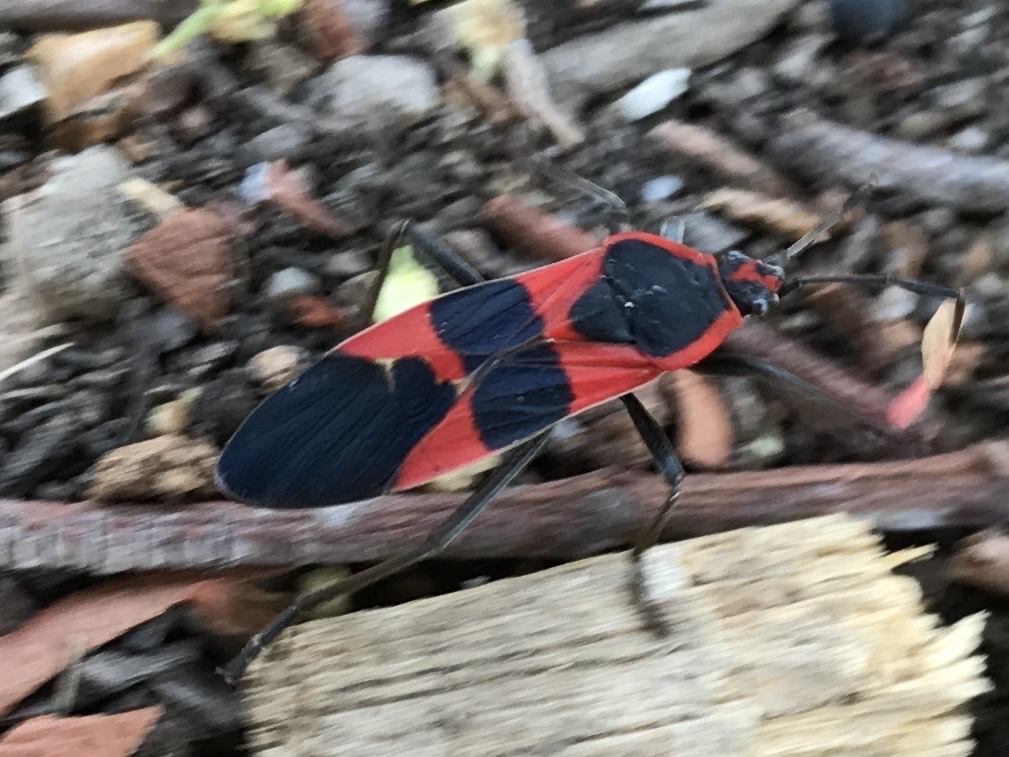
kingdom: Animalia
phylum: Arthropoda
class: Insecta
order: Hemiptera
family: Lygaeidae
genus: Oncopeltus
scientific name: Oncopeltus fasciatus
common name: Large milkweed bug
